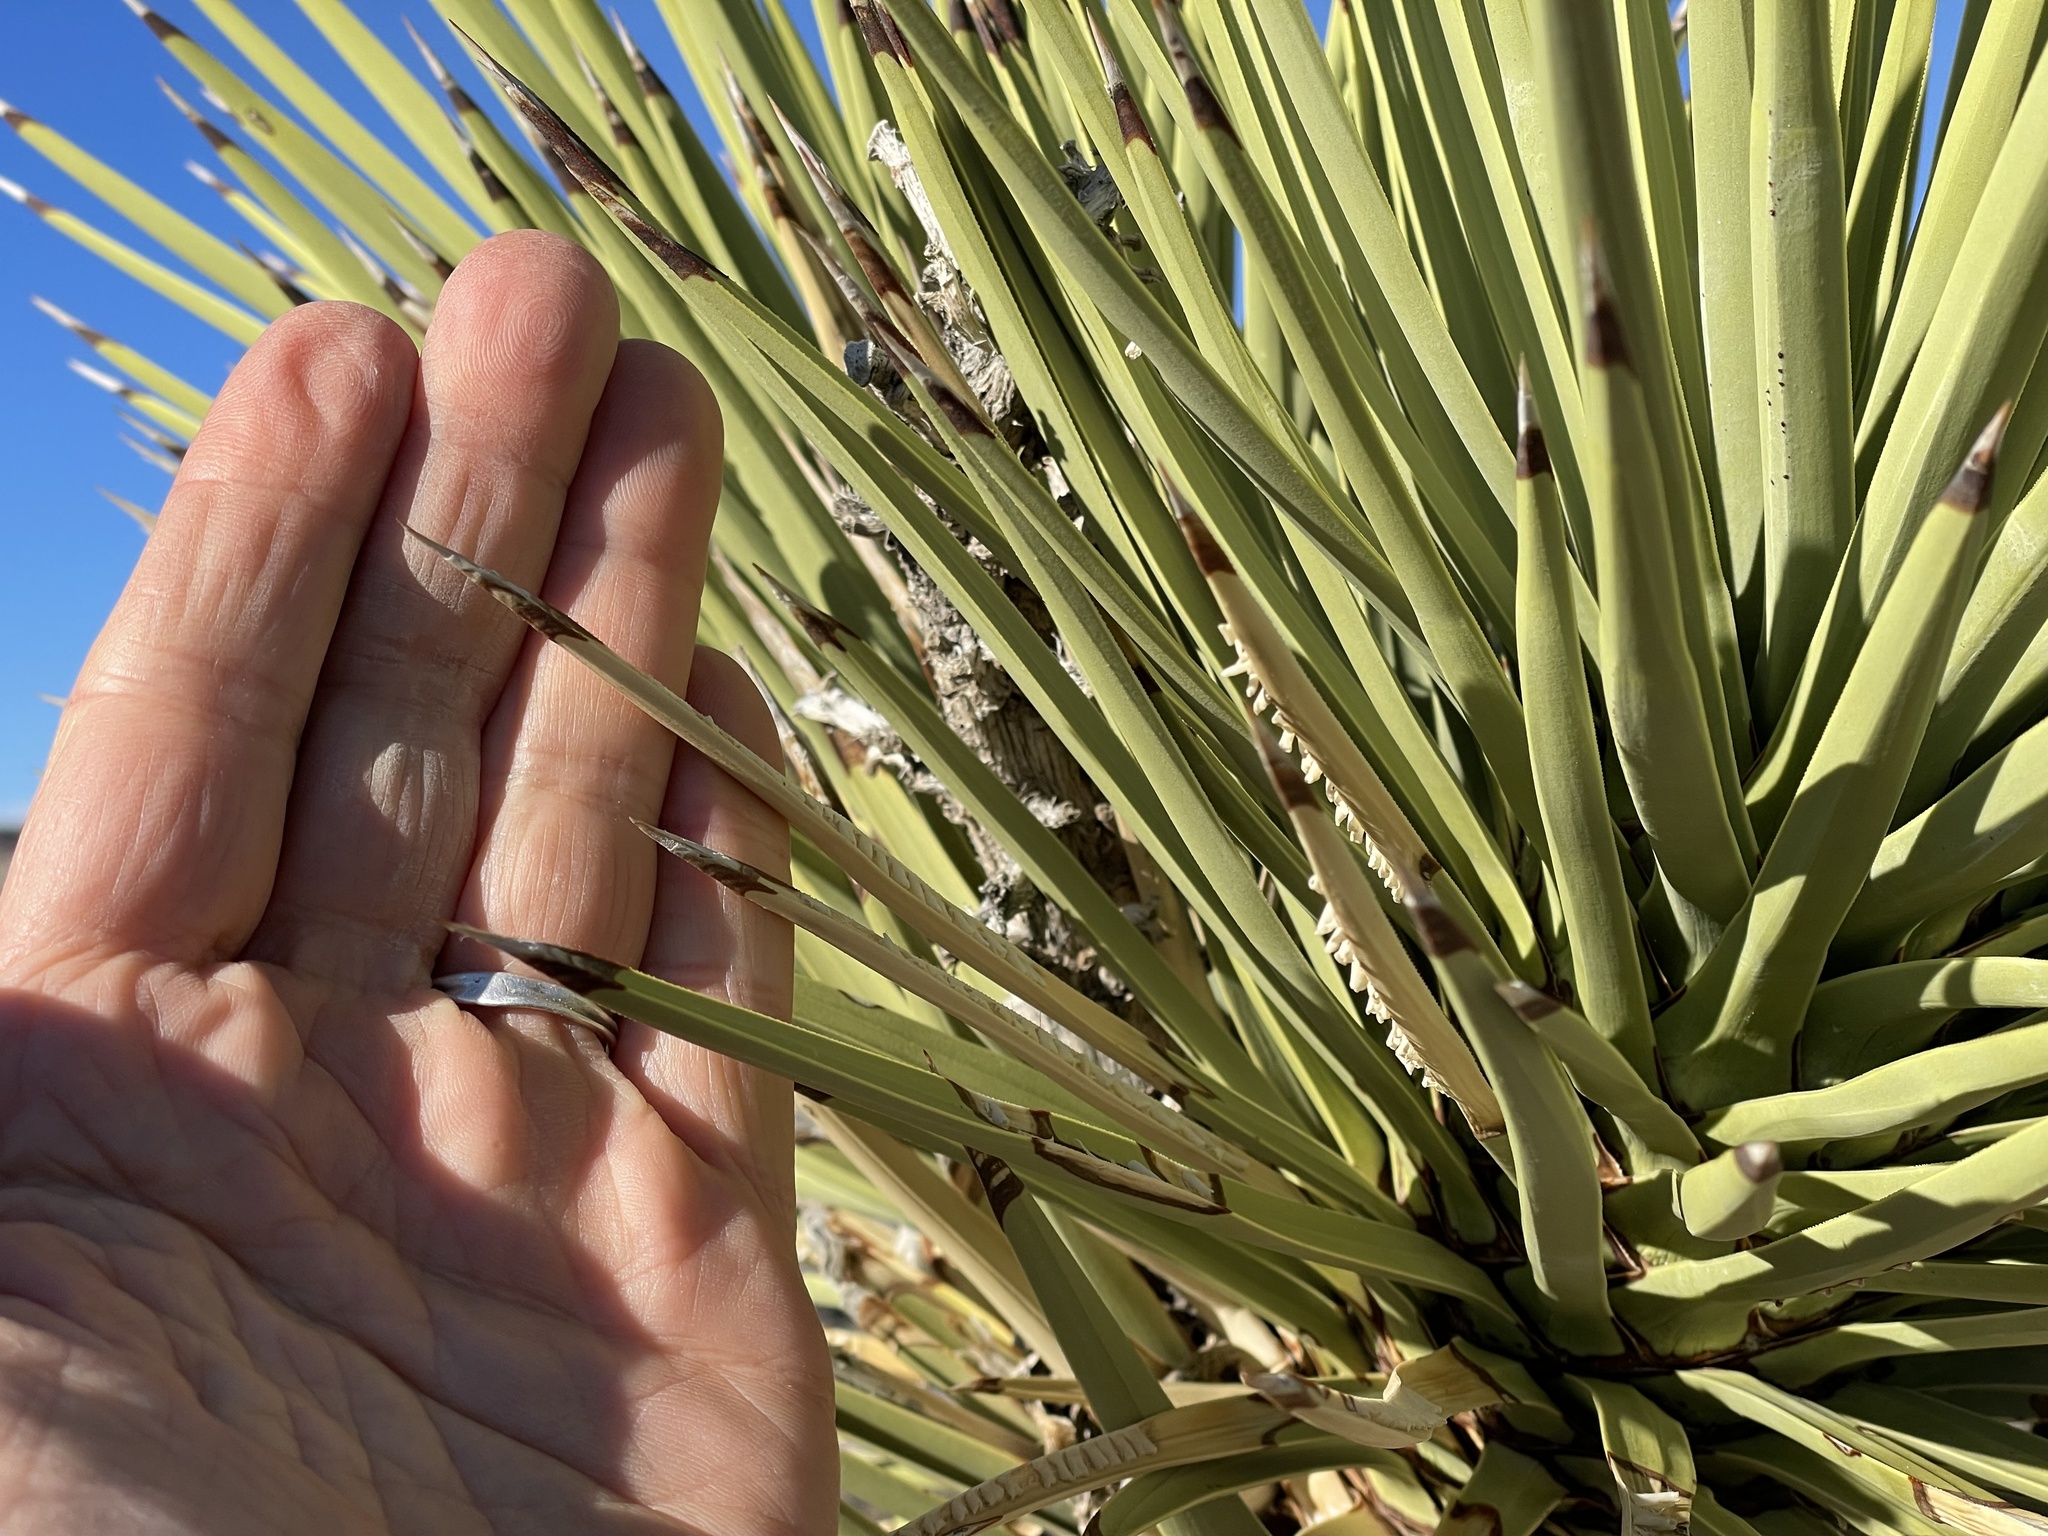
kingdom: Plantae
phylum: Tracheophyta
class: Liliopsida
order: Asparagales
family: Asparagaceae
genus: Yucca
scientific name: Yucca brevifolia
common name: Joshua tree
